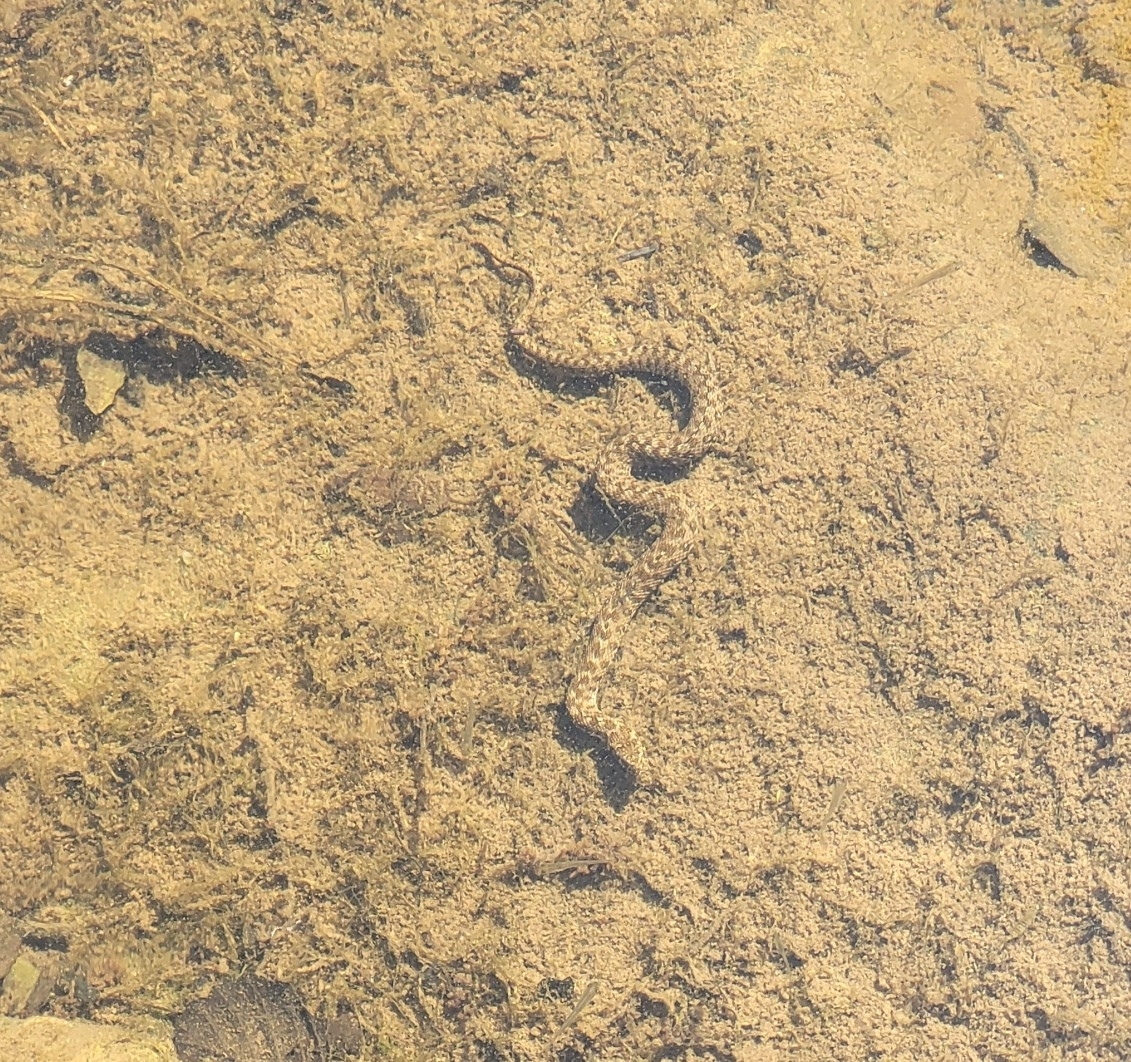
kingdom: Animalia
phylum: Chordata
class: Squamata
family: Colubridae
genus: Natrix
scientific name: Natrix maura
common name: Viperine water snake
